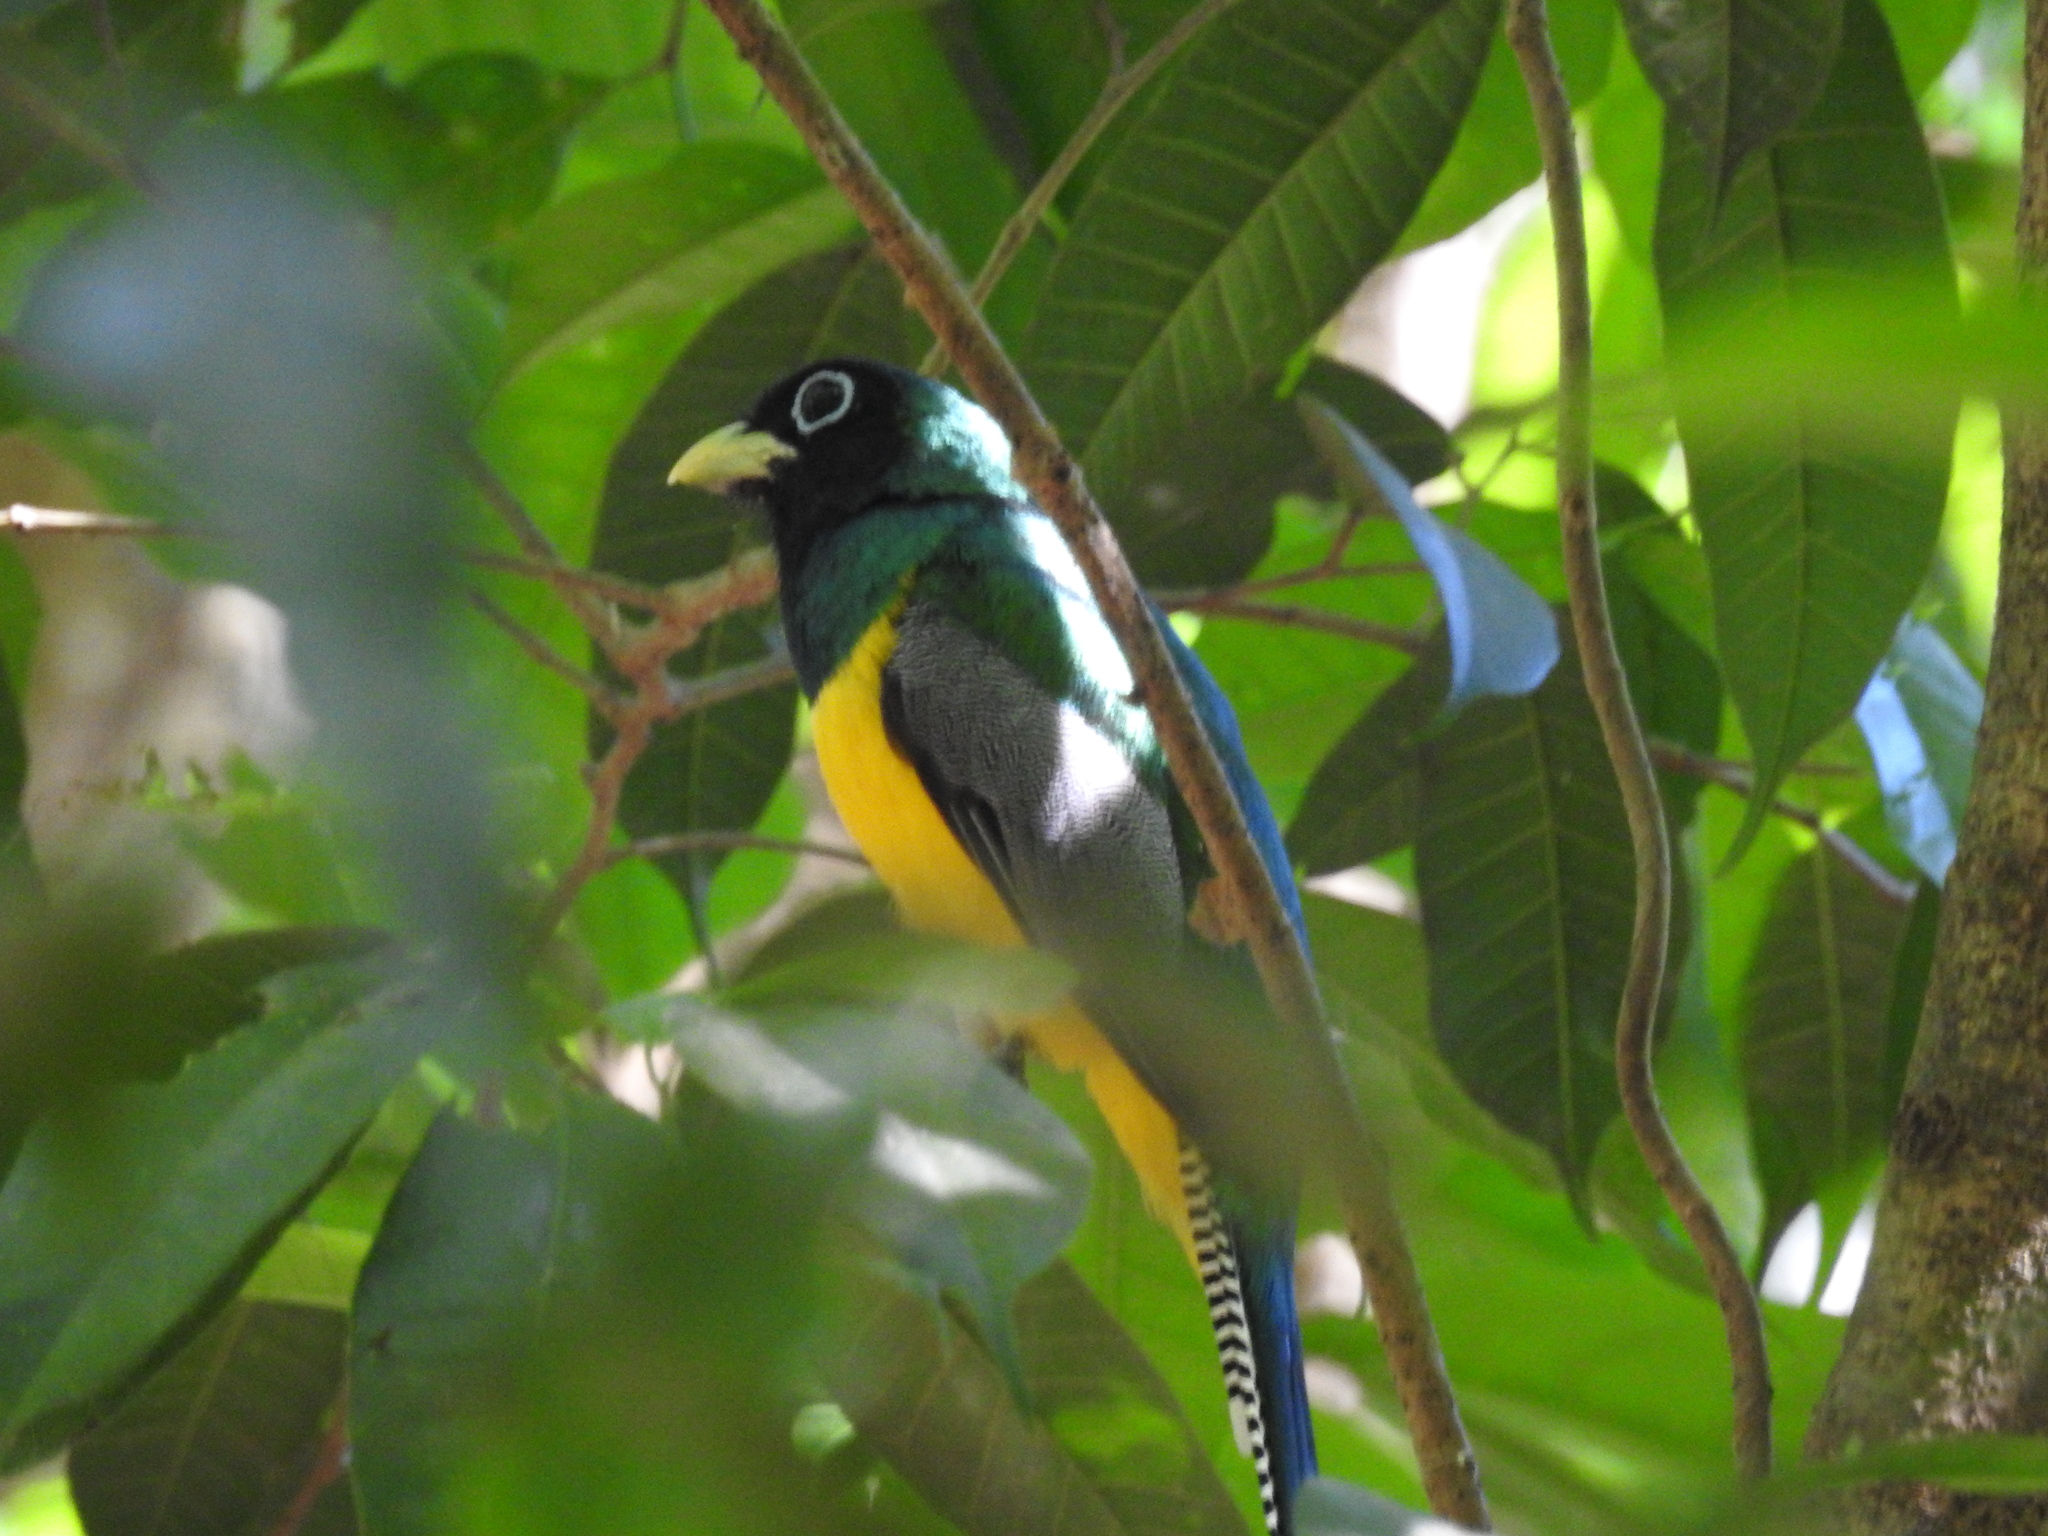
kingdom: Animalia
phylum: Chordata
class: Aves
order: Trogoniformes
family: Trogonidae
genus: Trogon
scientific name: Trogon rufus
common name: Black-throated trogon
